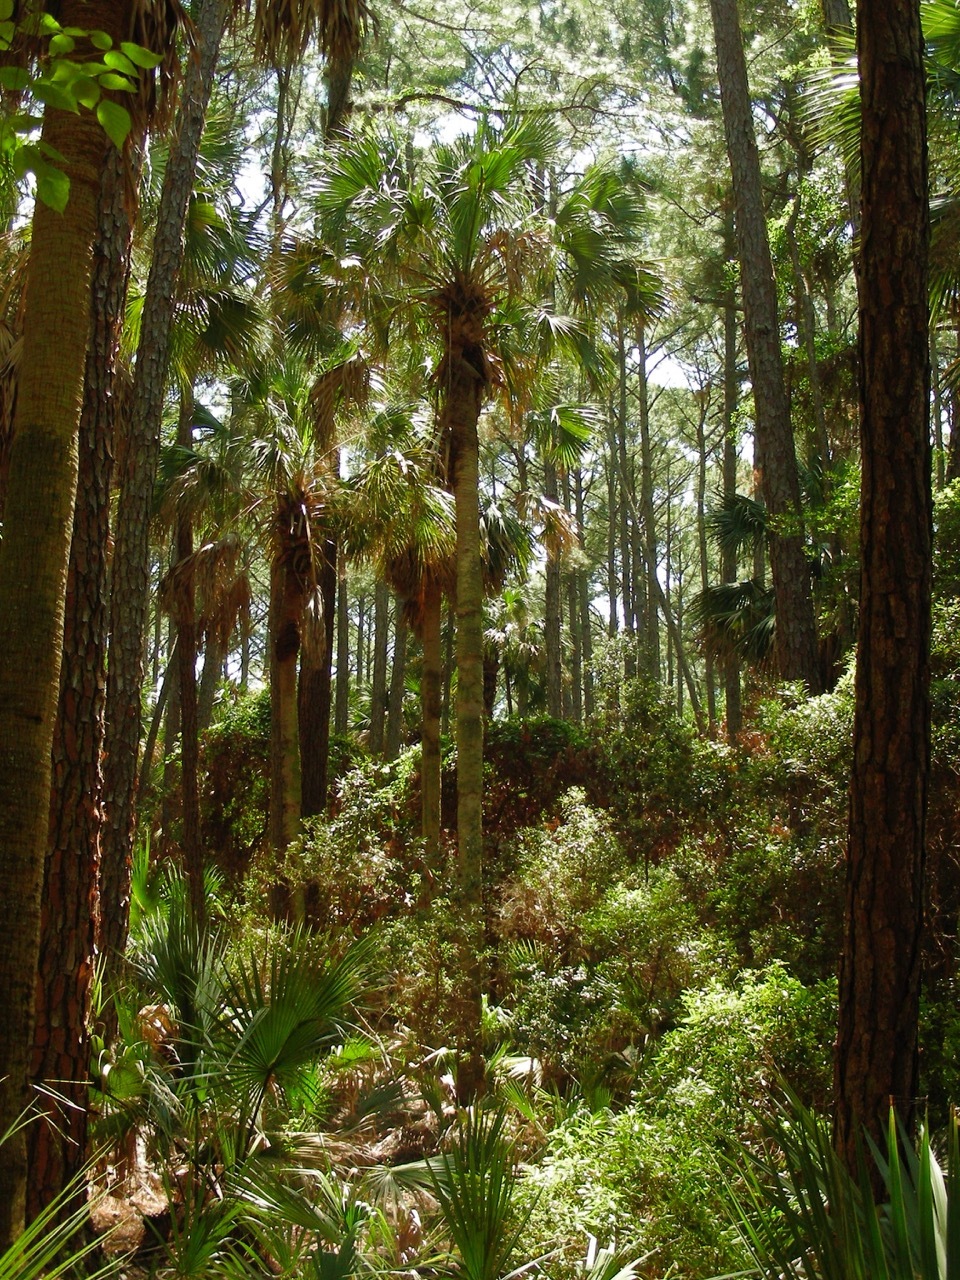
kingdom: Plantae
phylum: Tracheophyta
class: Liliopsida
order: Arecales
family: Arecaceae
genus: Sabal
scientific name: Sabal palmetto
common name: Blue palmetto
